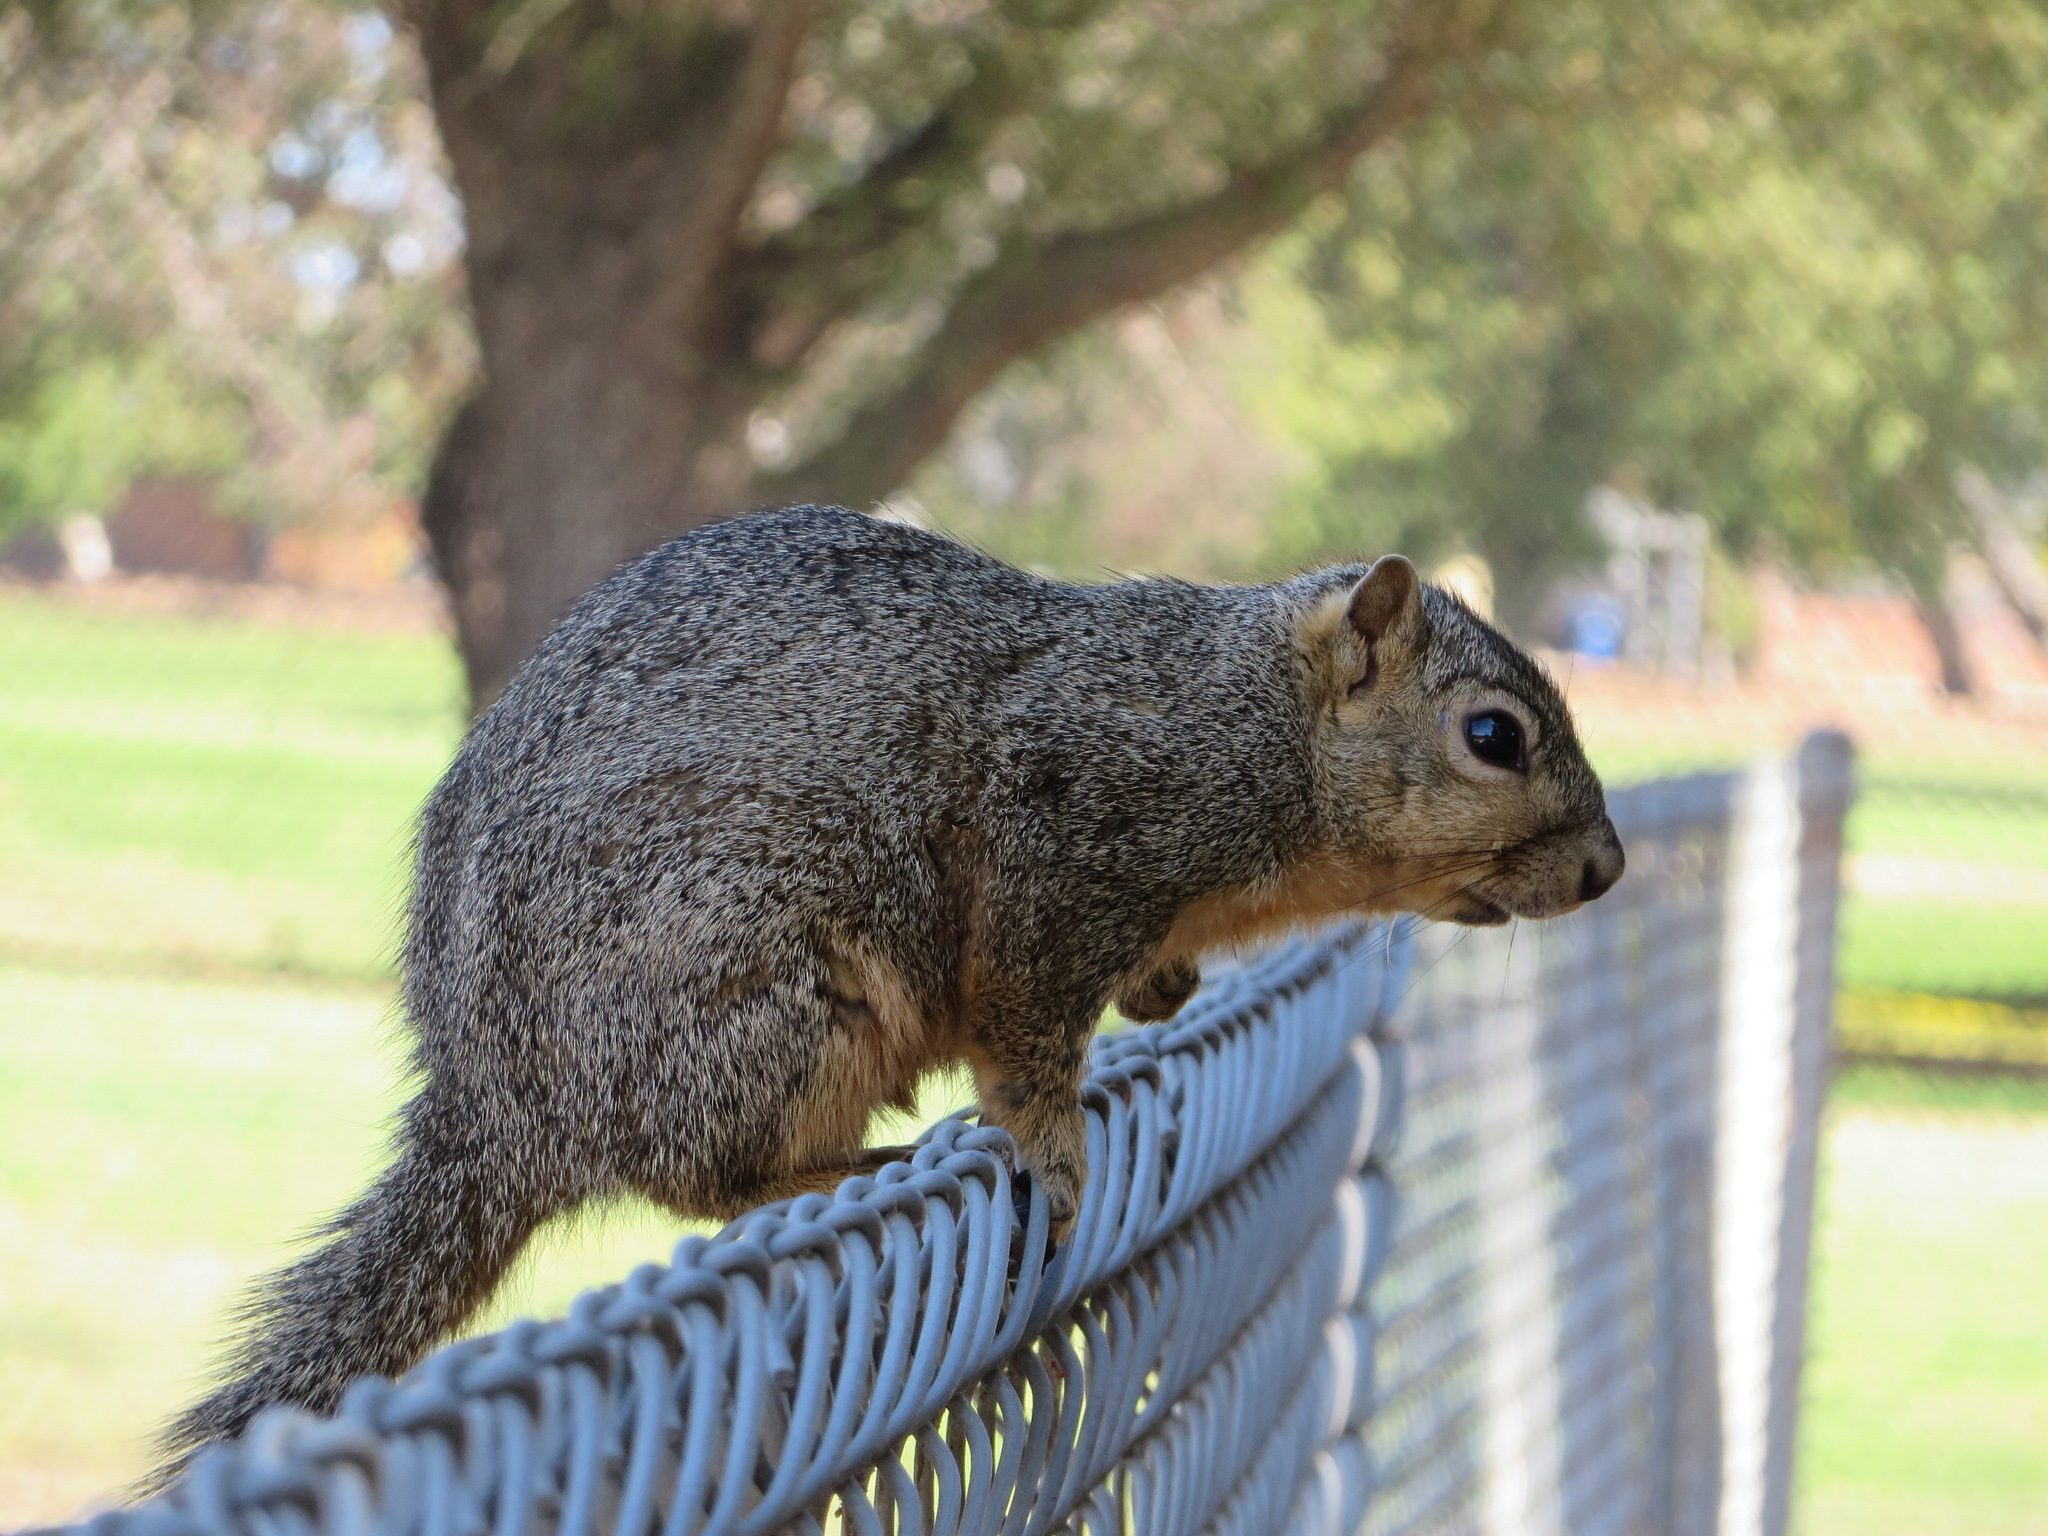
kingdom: Animalia
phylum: Chordata
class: Mammalia
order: Rodentia
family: Sciuridae
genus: Sciurus
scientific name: Sciurus niger
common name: Fox squirrel
